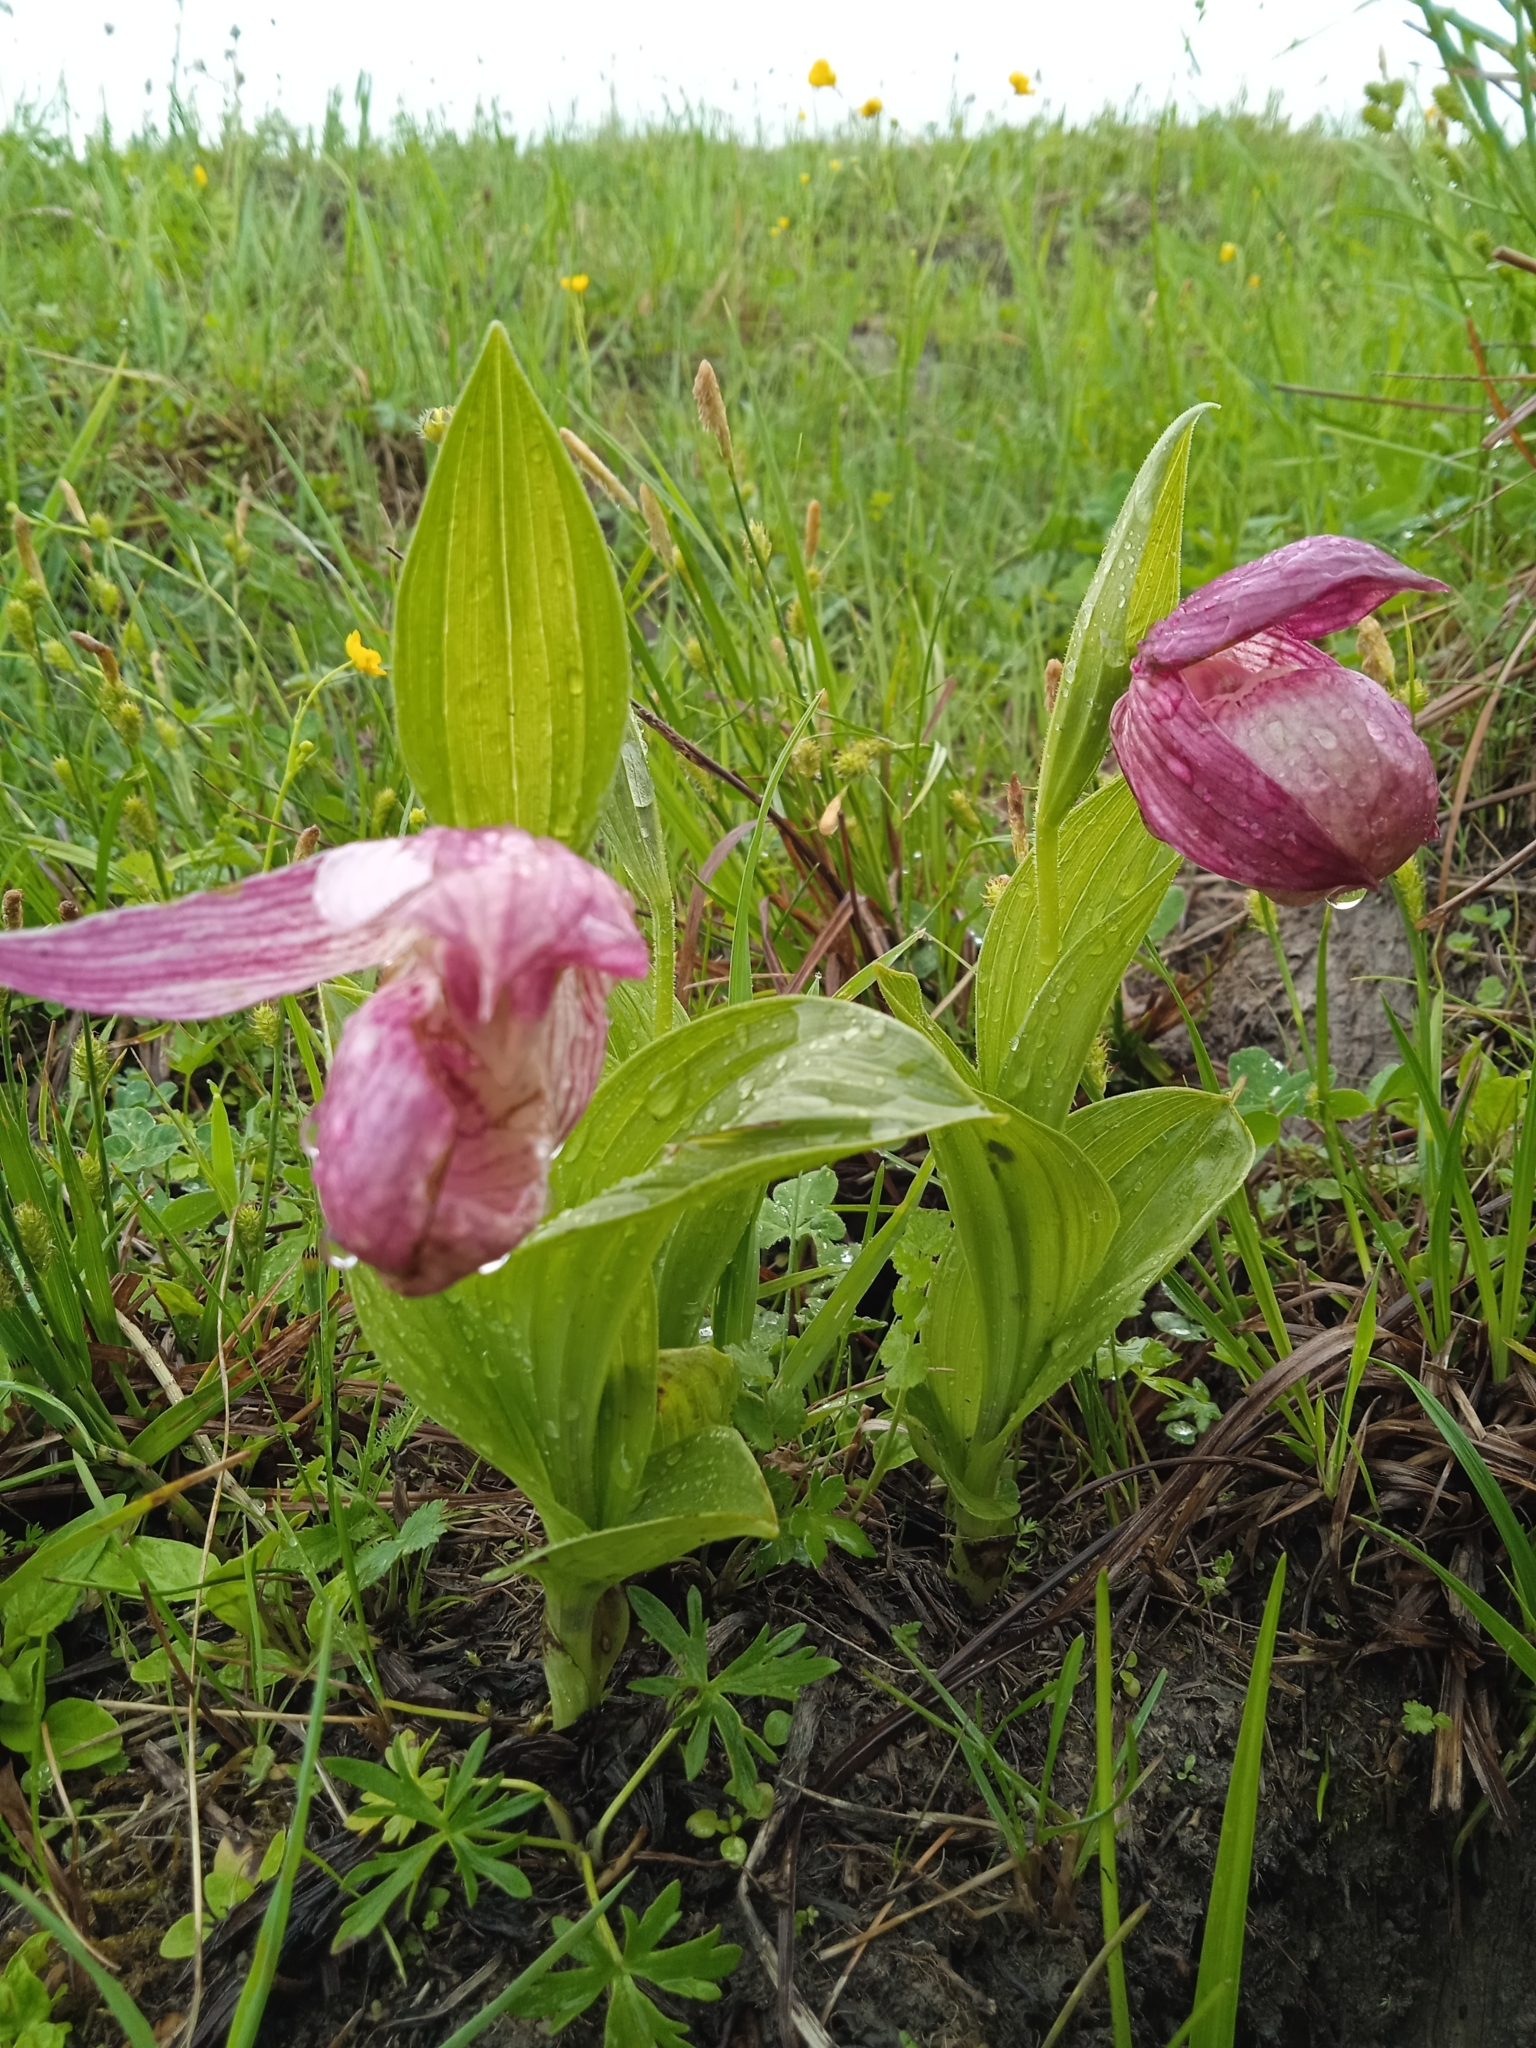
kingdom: Plantae
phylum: Tracheophyta
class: Liliopsida
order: Asparagales
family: Orchidaceae
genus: Cypripedium
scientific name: Cypripedium macranthos
